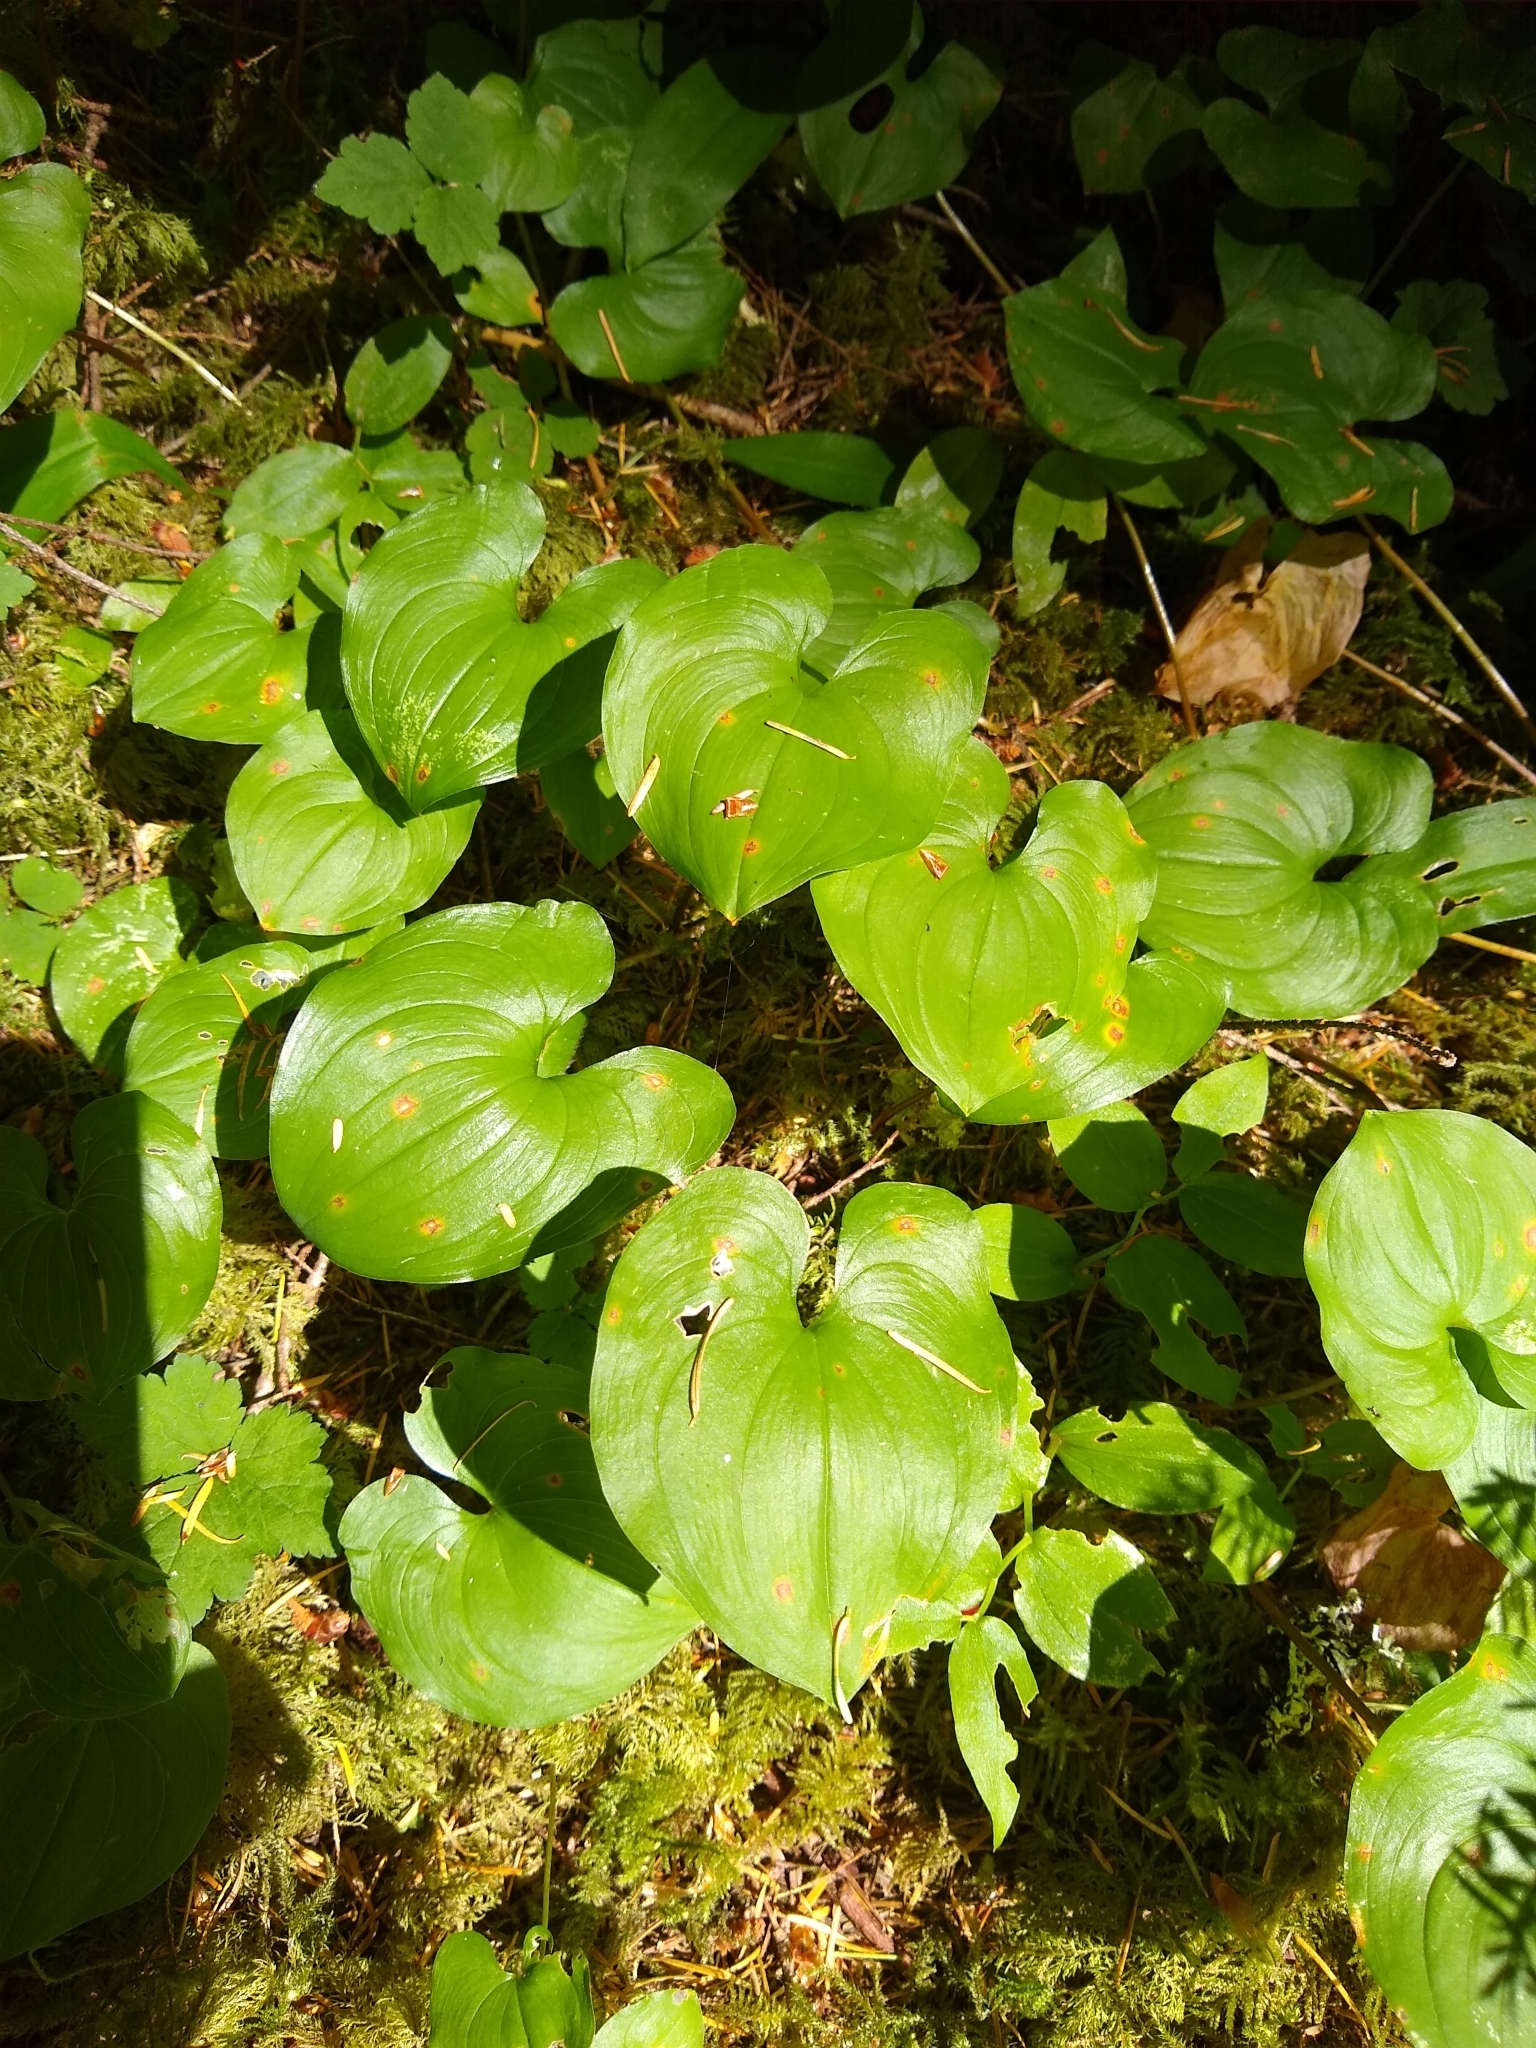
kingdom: Plantae
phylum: Tracheophyta
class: Liliopsida
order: Asparagales
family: Asparagaceae
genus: Maianthemum
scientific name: Maianthemum dilatatum
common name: False lily-of-the-valley
